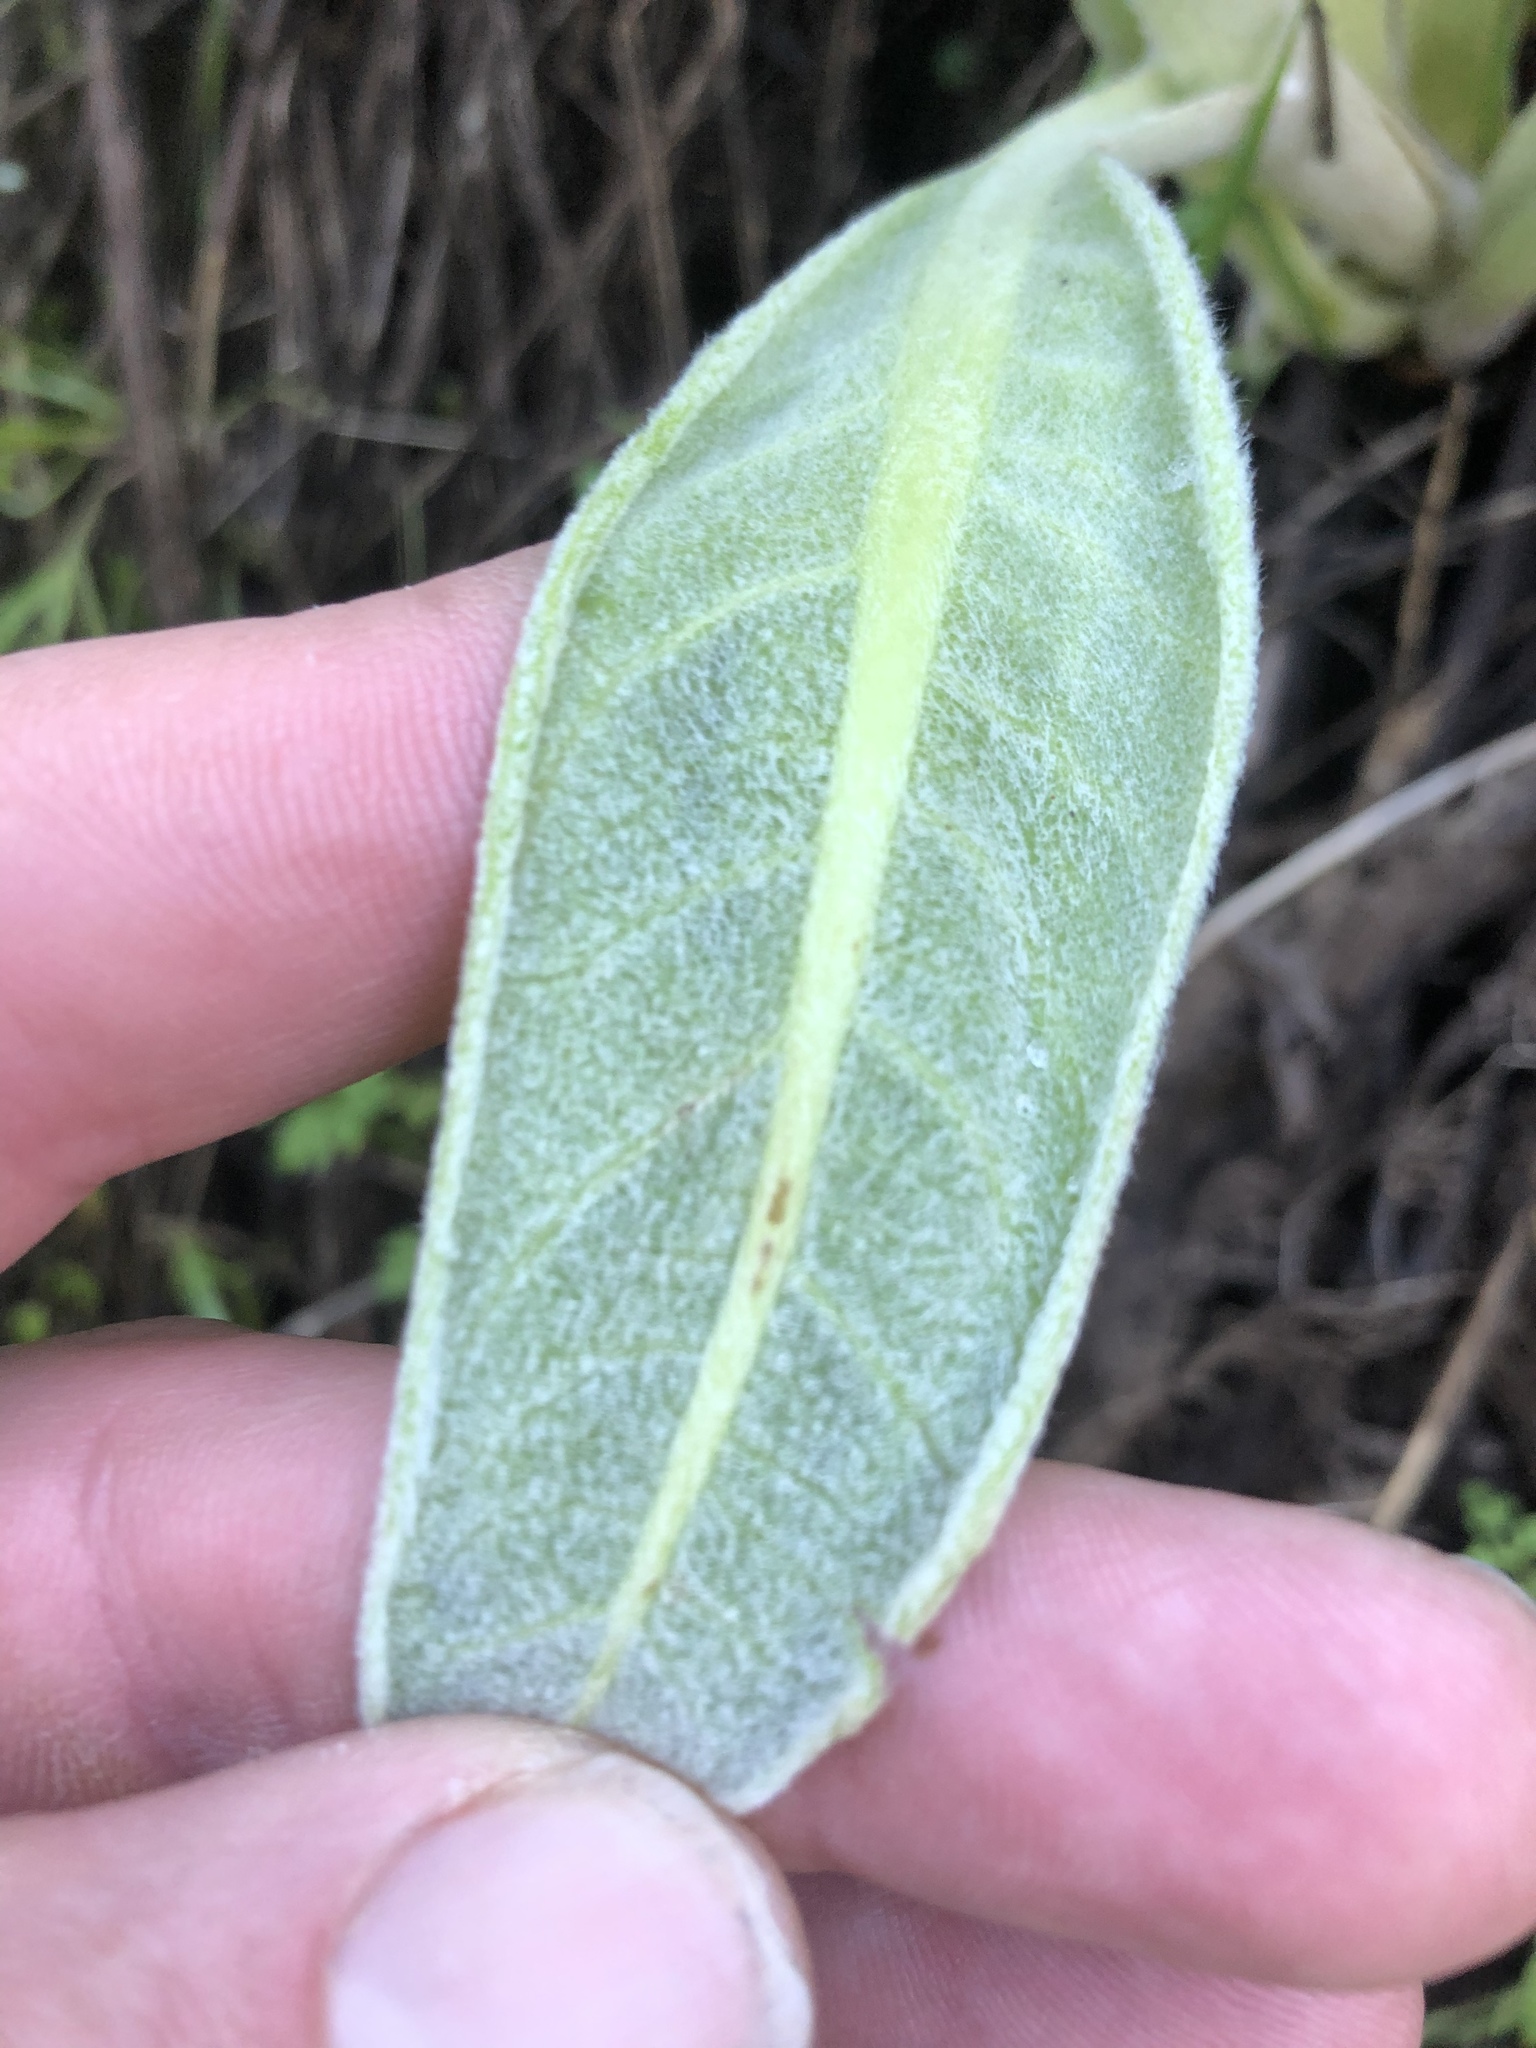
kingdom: Plantae
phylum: Tracheophyta
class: Magnoliopsida
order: Lamiales
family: Scrophulariaceae
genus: Verbascum
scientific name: Verbascum thapsus
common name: Common mullein
